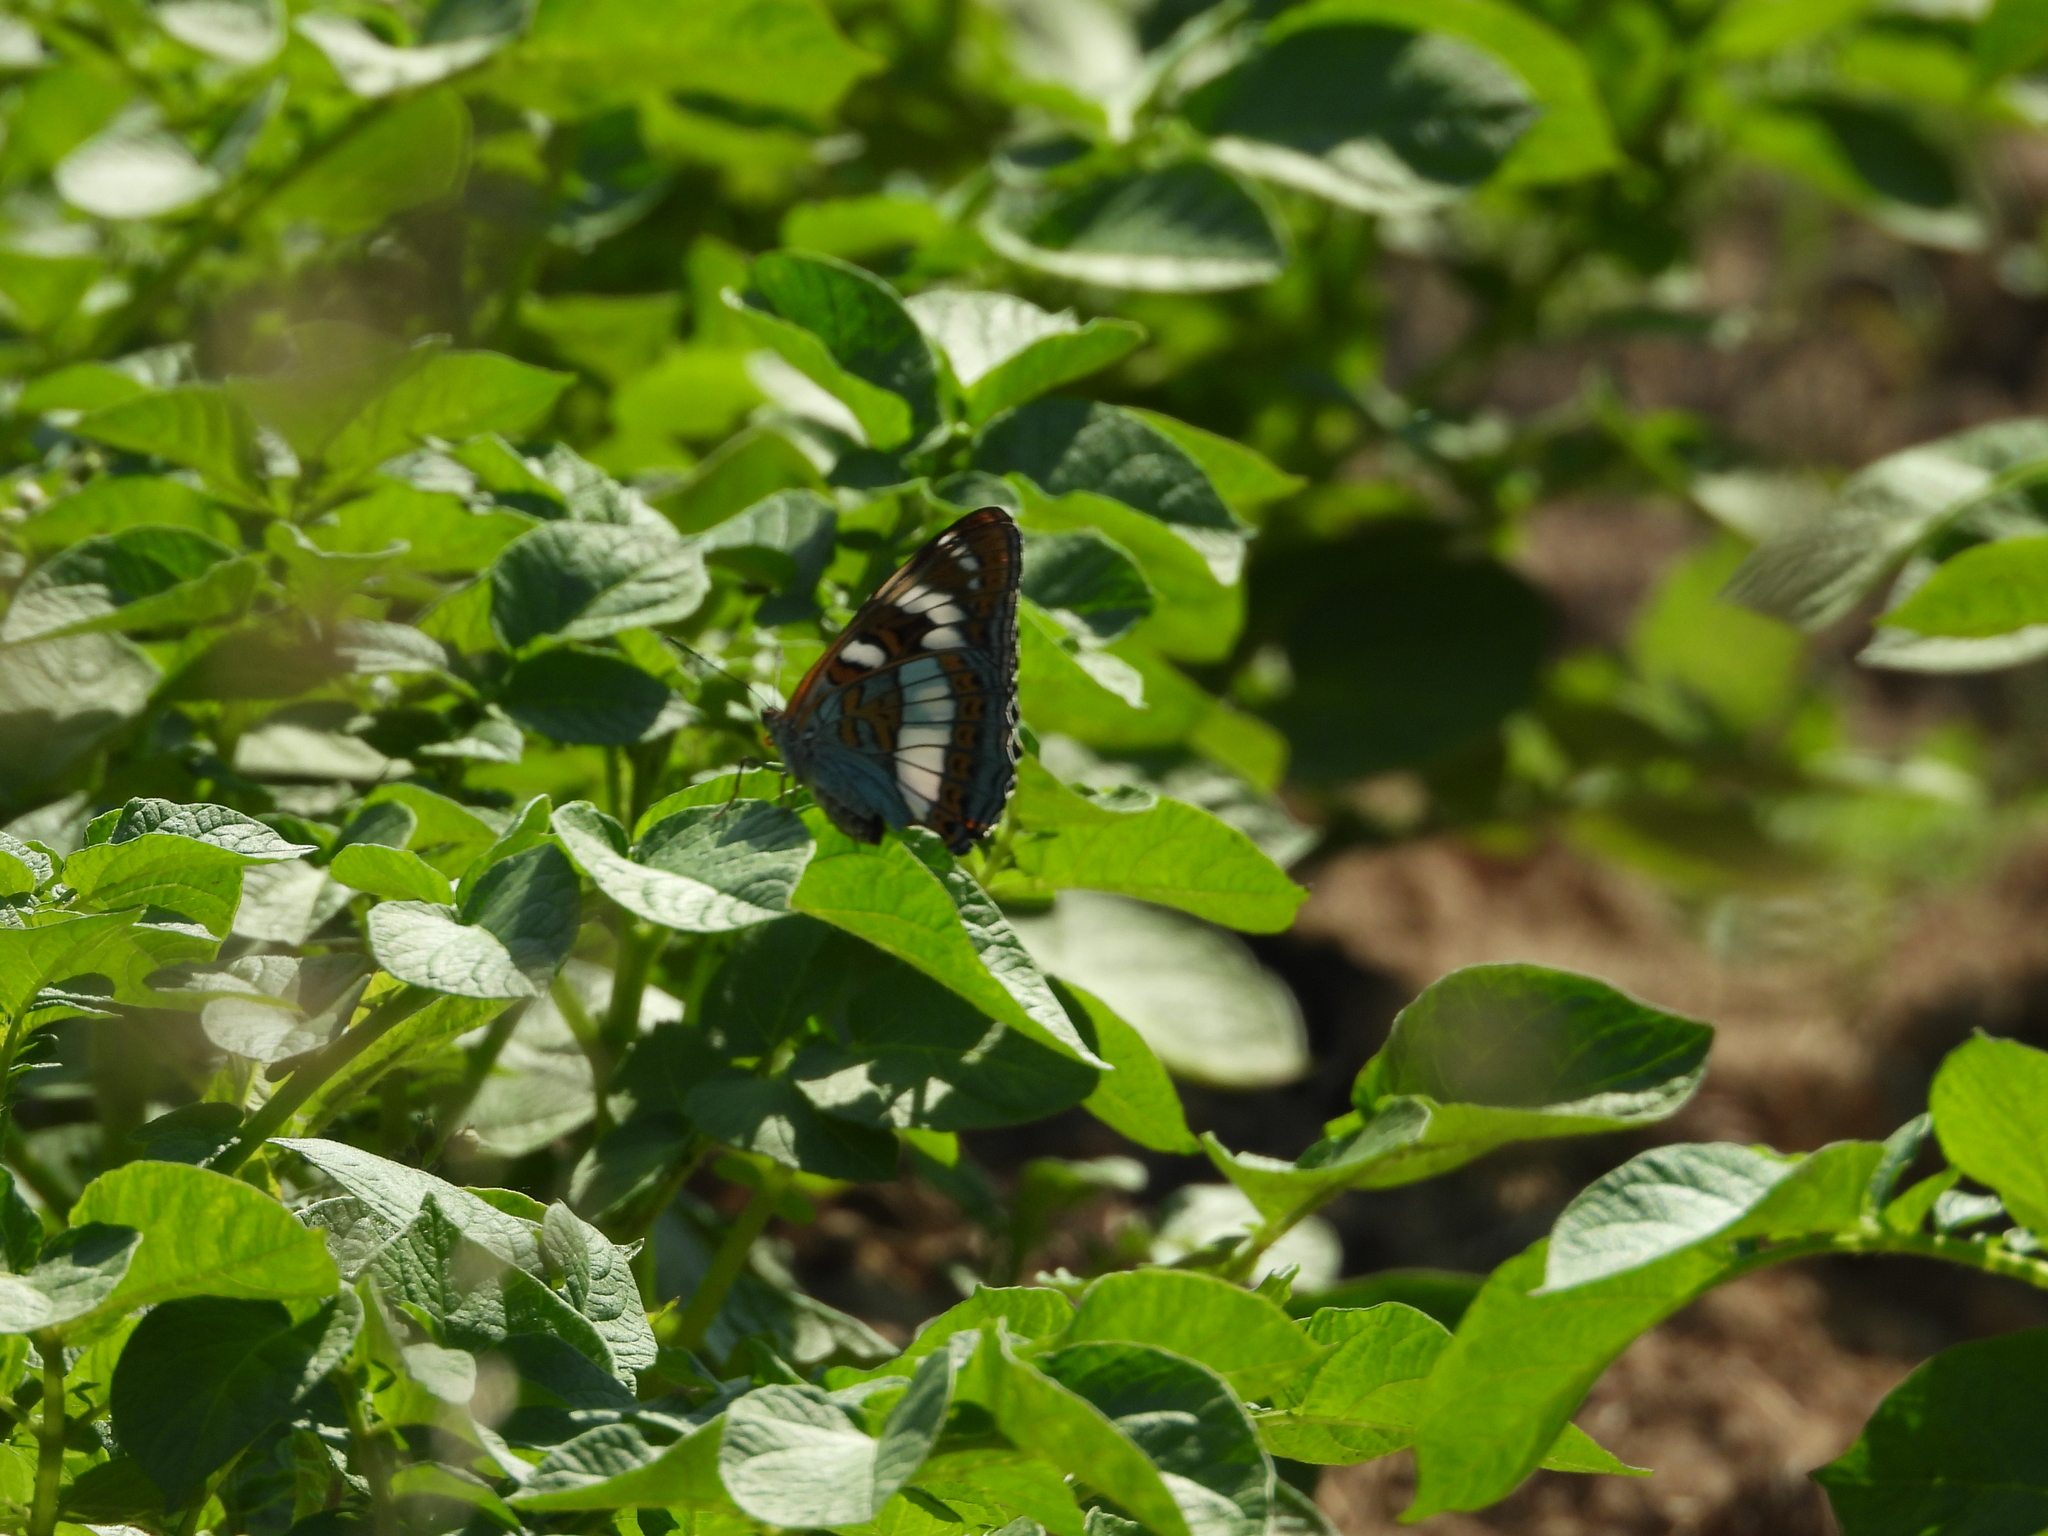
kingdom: Animalia
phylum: Arthropoda
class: Insecta
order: Lepidoptera
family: Nymphalidae
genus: Limenitis
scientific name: Limenitis populi
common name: Poplar admiral
